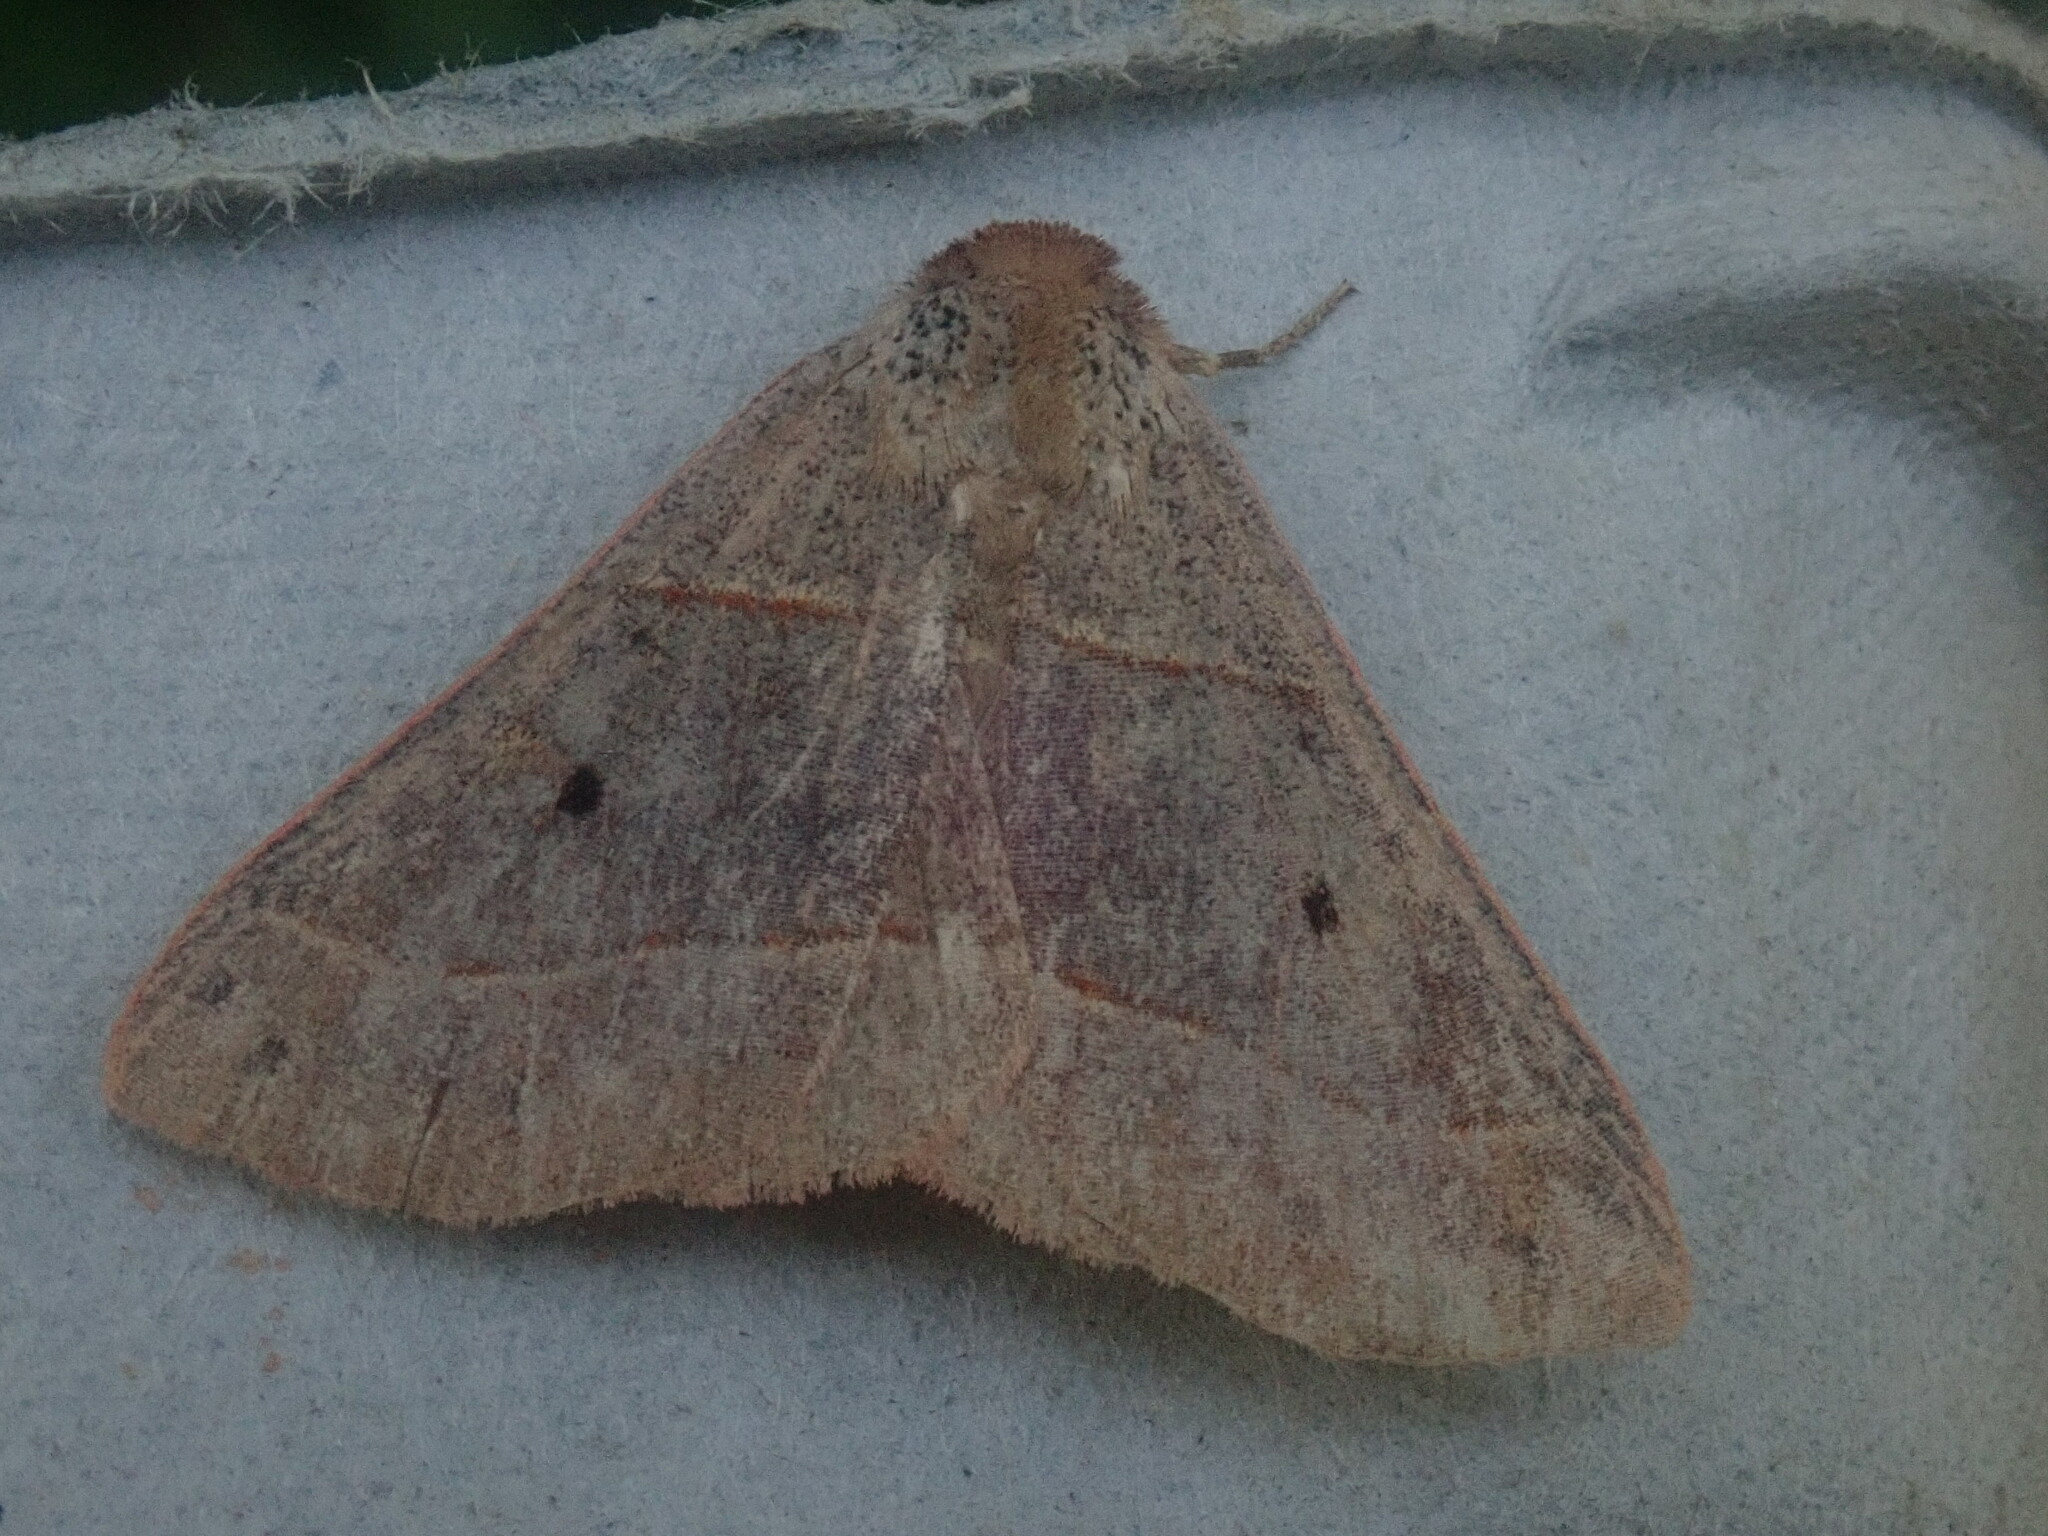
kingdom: Animalia
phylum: Arthropoda
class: Insecta
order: Lepidoptera
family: Erebidae
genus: Panopoda
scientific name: Panopoda rufimargo
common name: Red-lined panopoda moth
